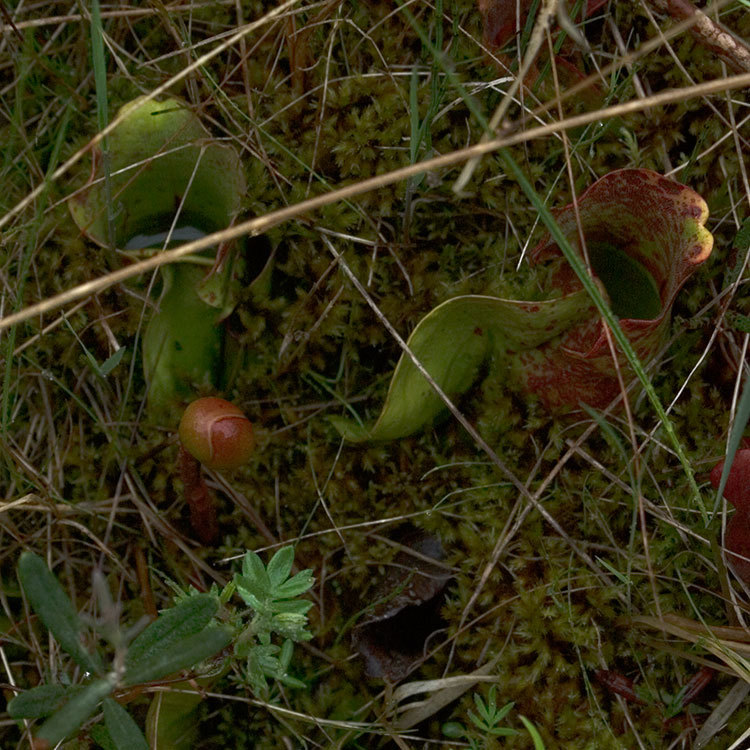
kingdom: Plantae
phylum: Tracheophyta
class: Magnoliopsida
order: Ericales
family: Sarraceniaceae
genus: Sarracenia
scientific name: Sarracenia purpurea
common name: Pitcherplant
